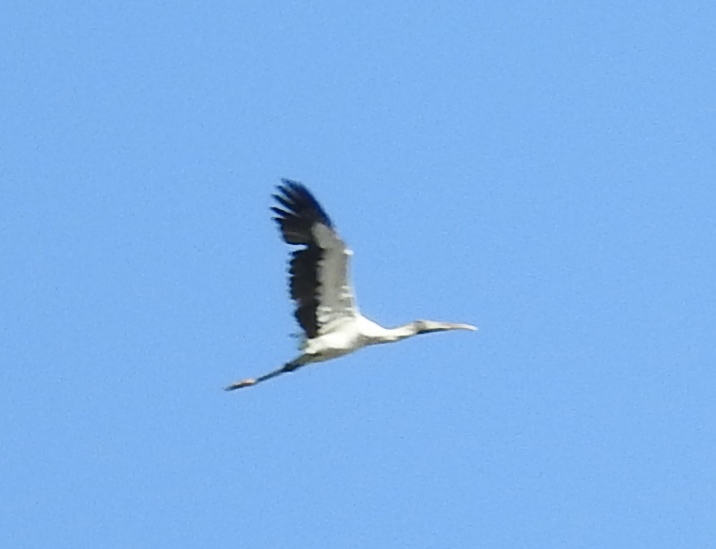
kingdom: Animalia
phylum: Chordata
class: Aves
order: Ciconiiformes
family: Ciconiidae
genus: Mycteria
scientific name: Mycteria americana
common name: Wood stork
